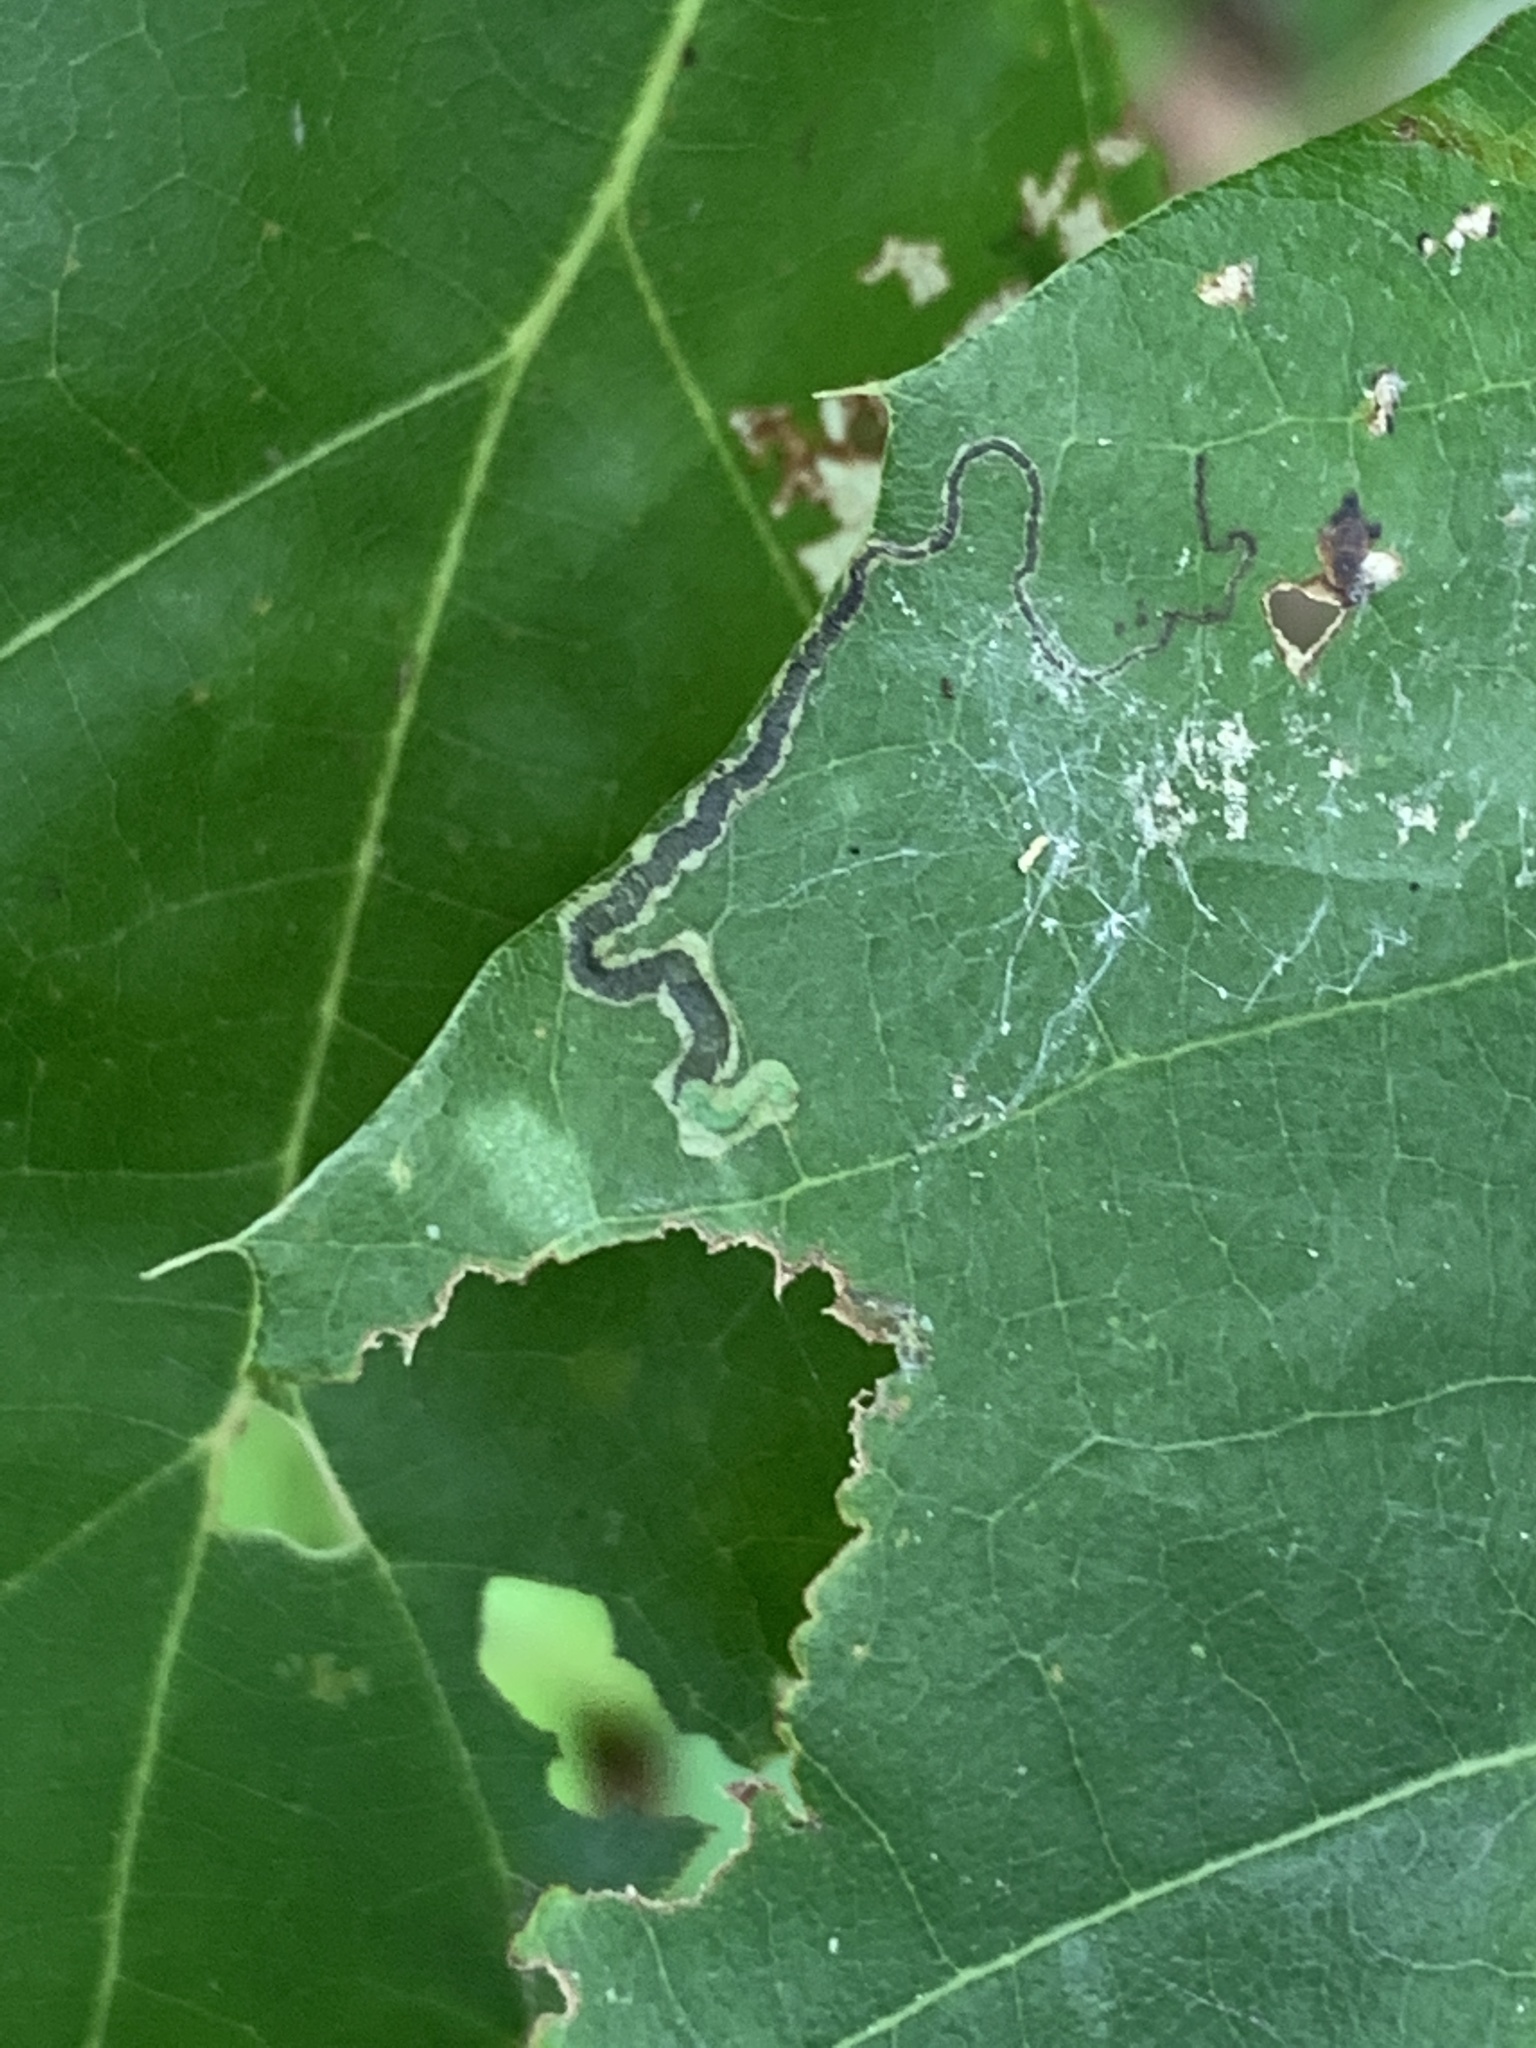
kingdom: Animalia
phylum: Arthropoda
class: Insecta
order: Lepidoptera
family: Nepticulidae
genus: Stigmella
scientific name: Stigmella nigriverticella
